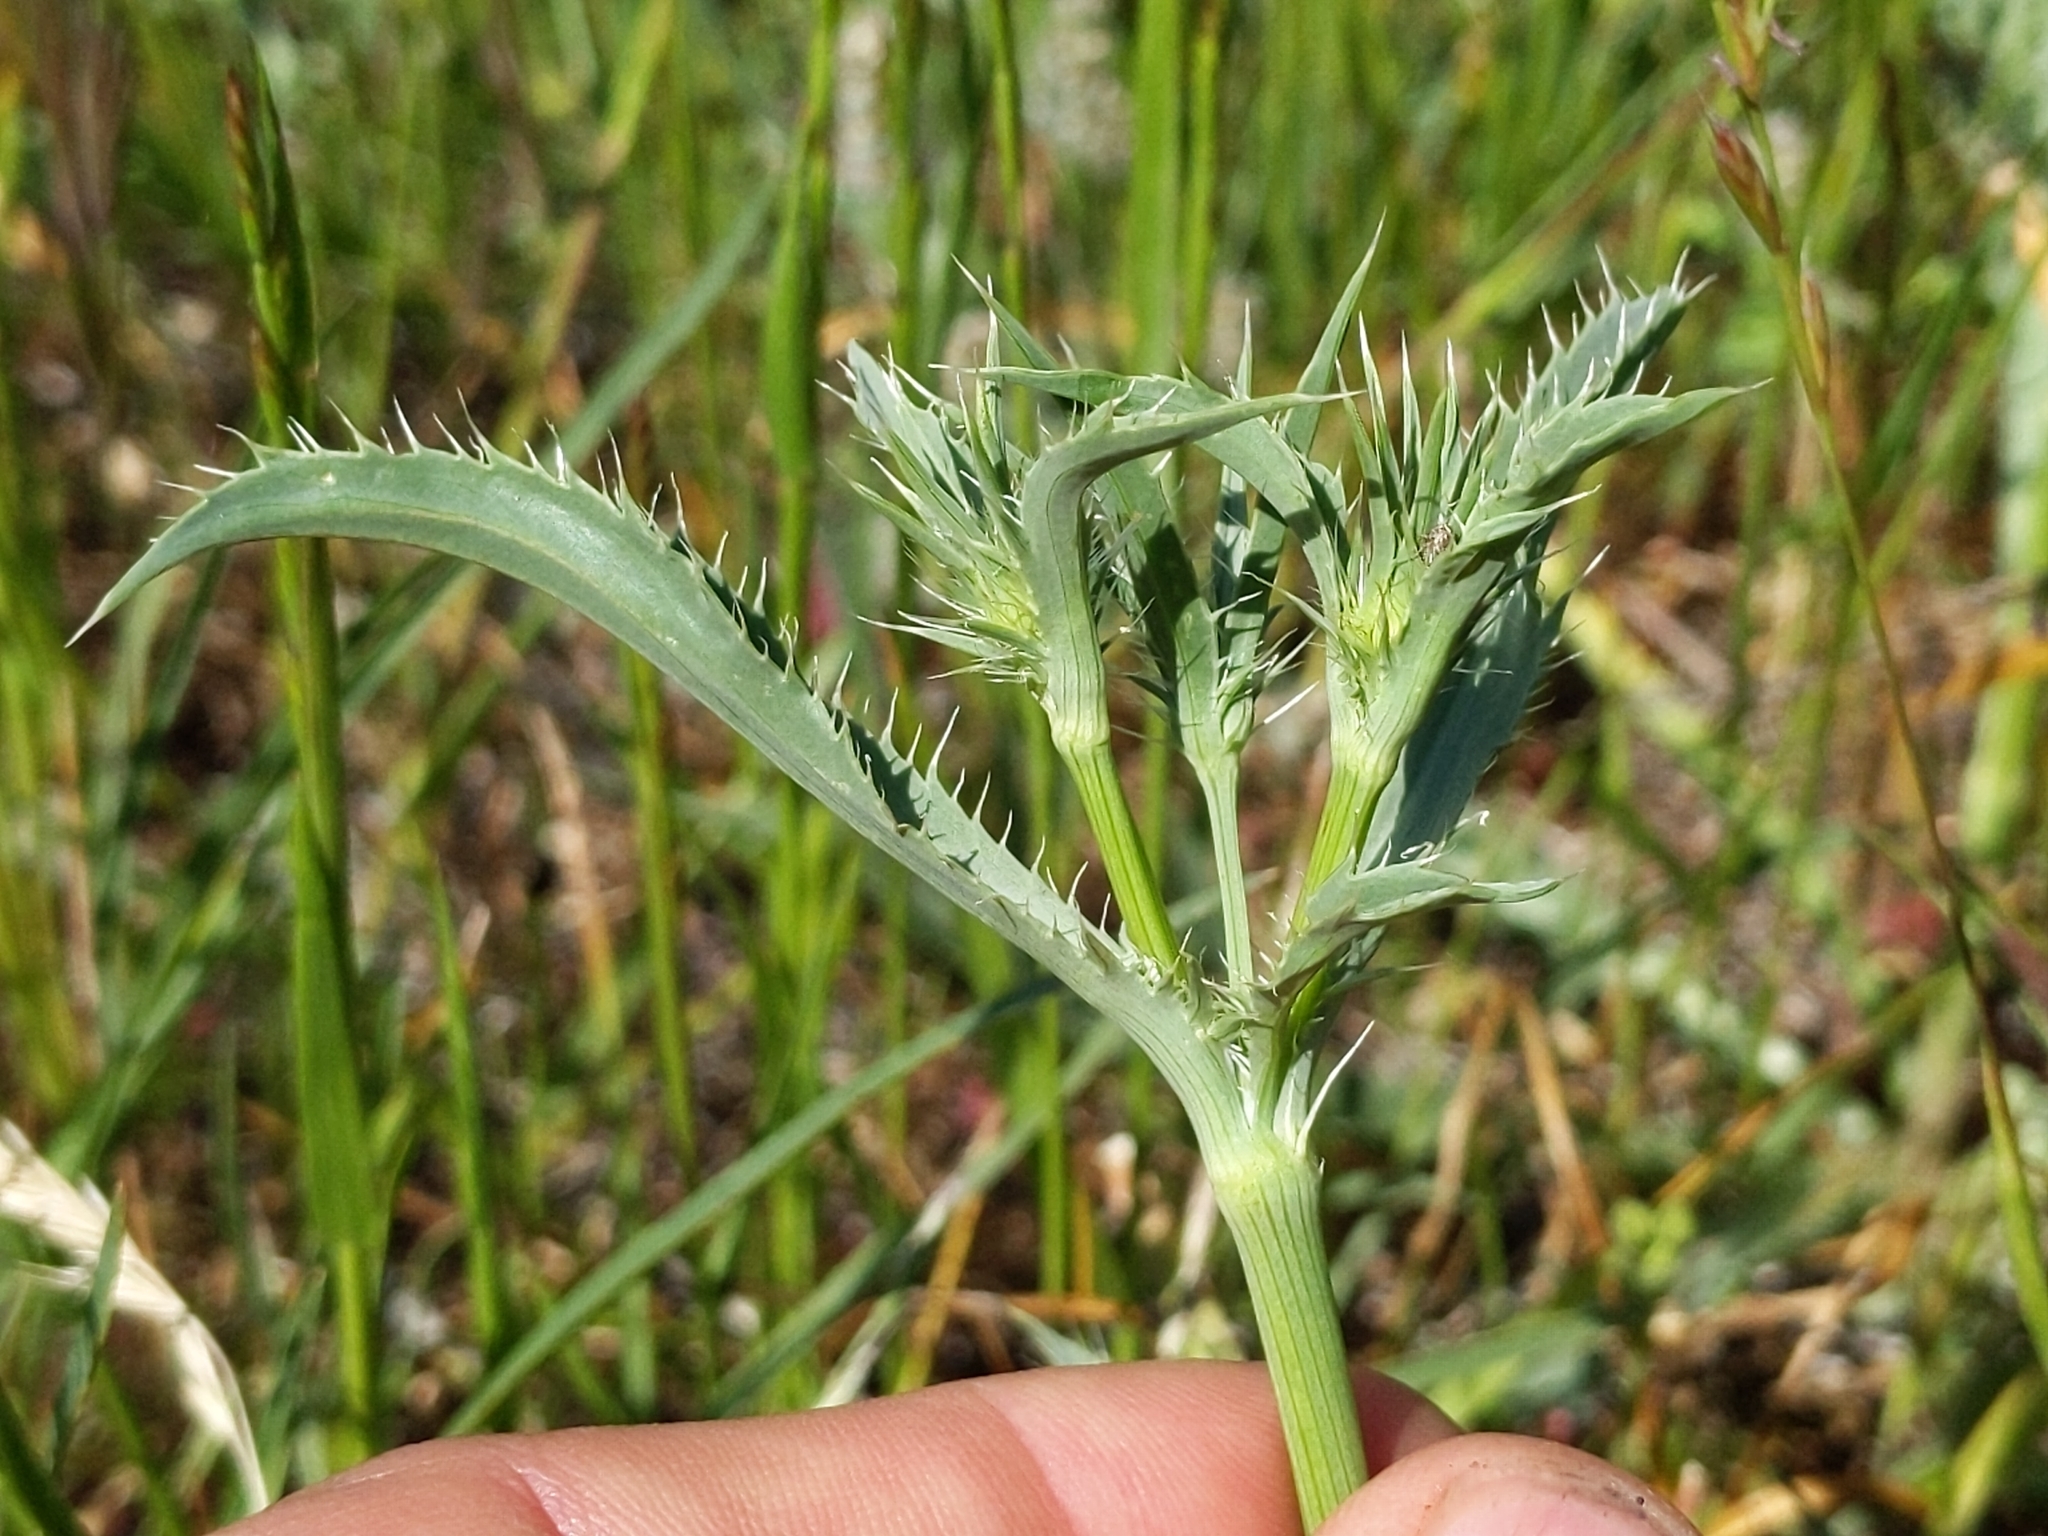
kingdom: Plantae
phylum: Tracheophyta
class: Magnoliopsida
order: Apiales
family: Apiaceae
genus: Eryngium
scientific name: Eryngium aristulatum
